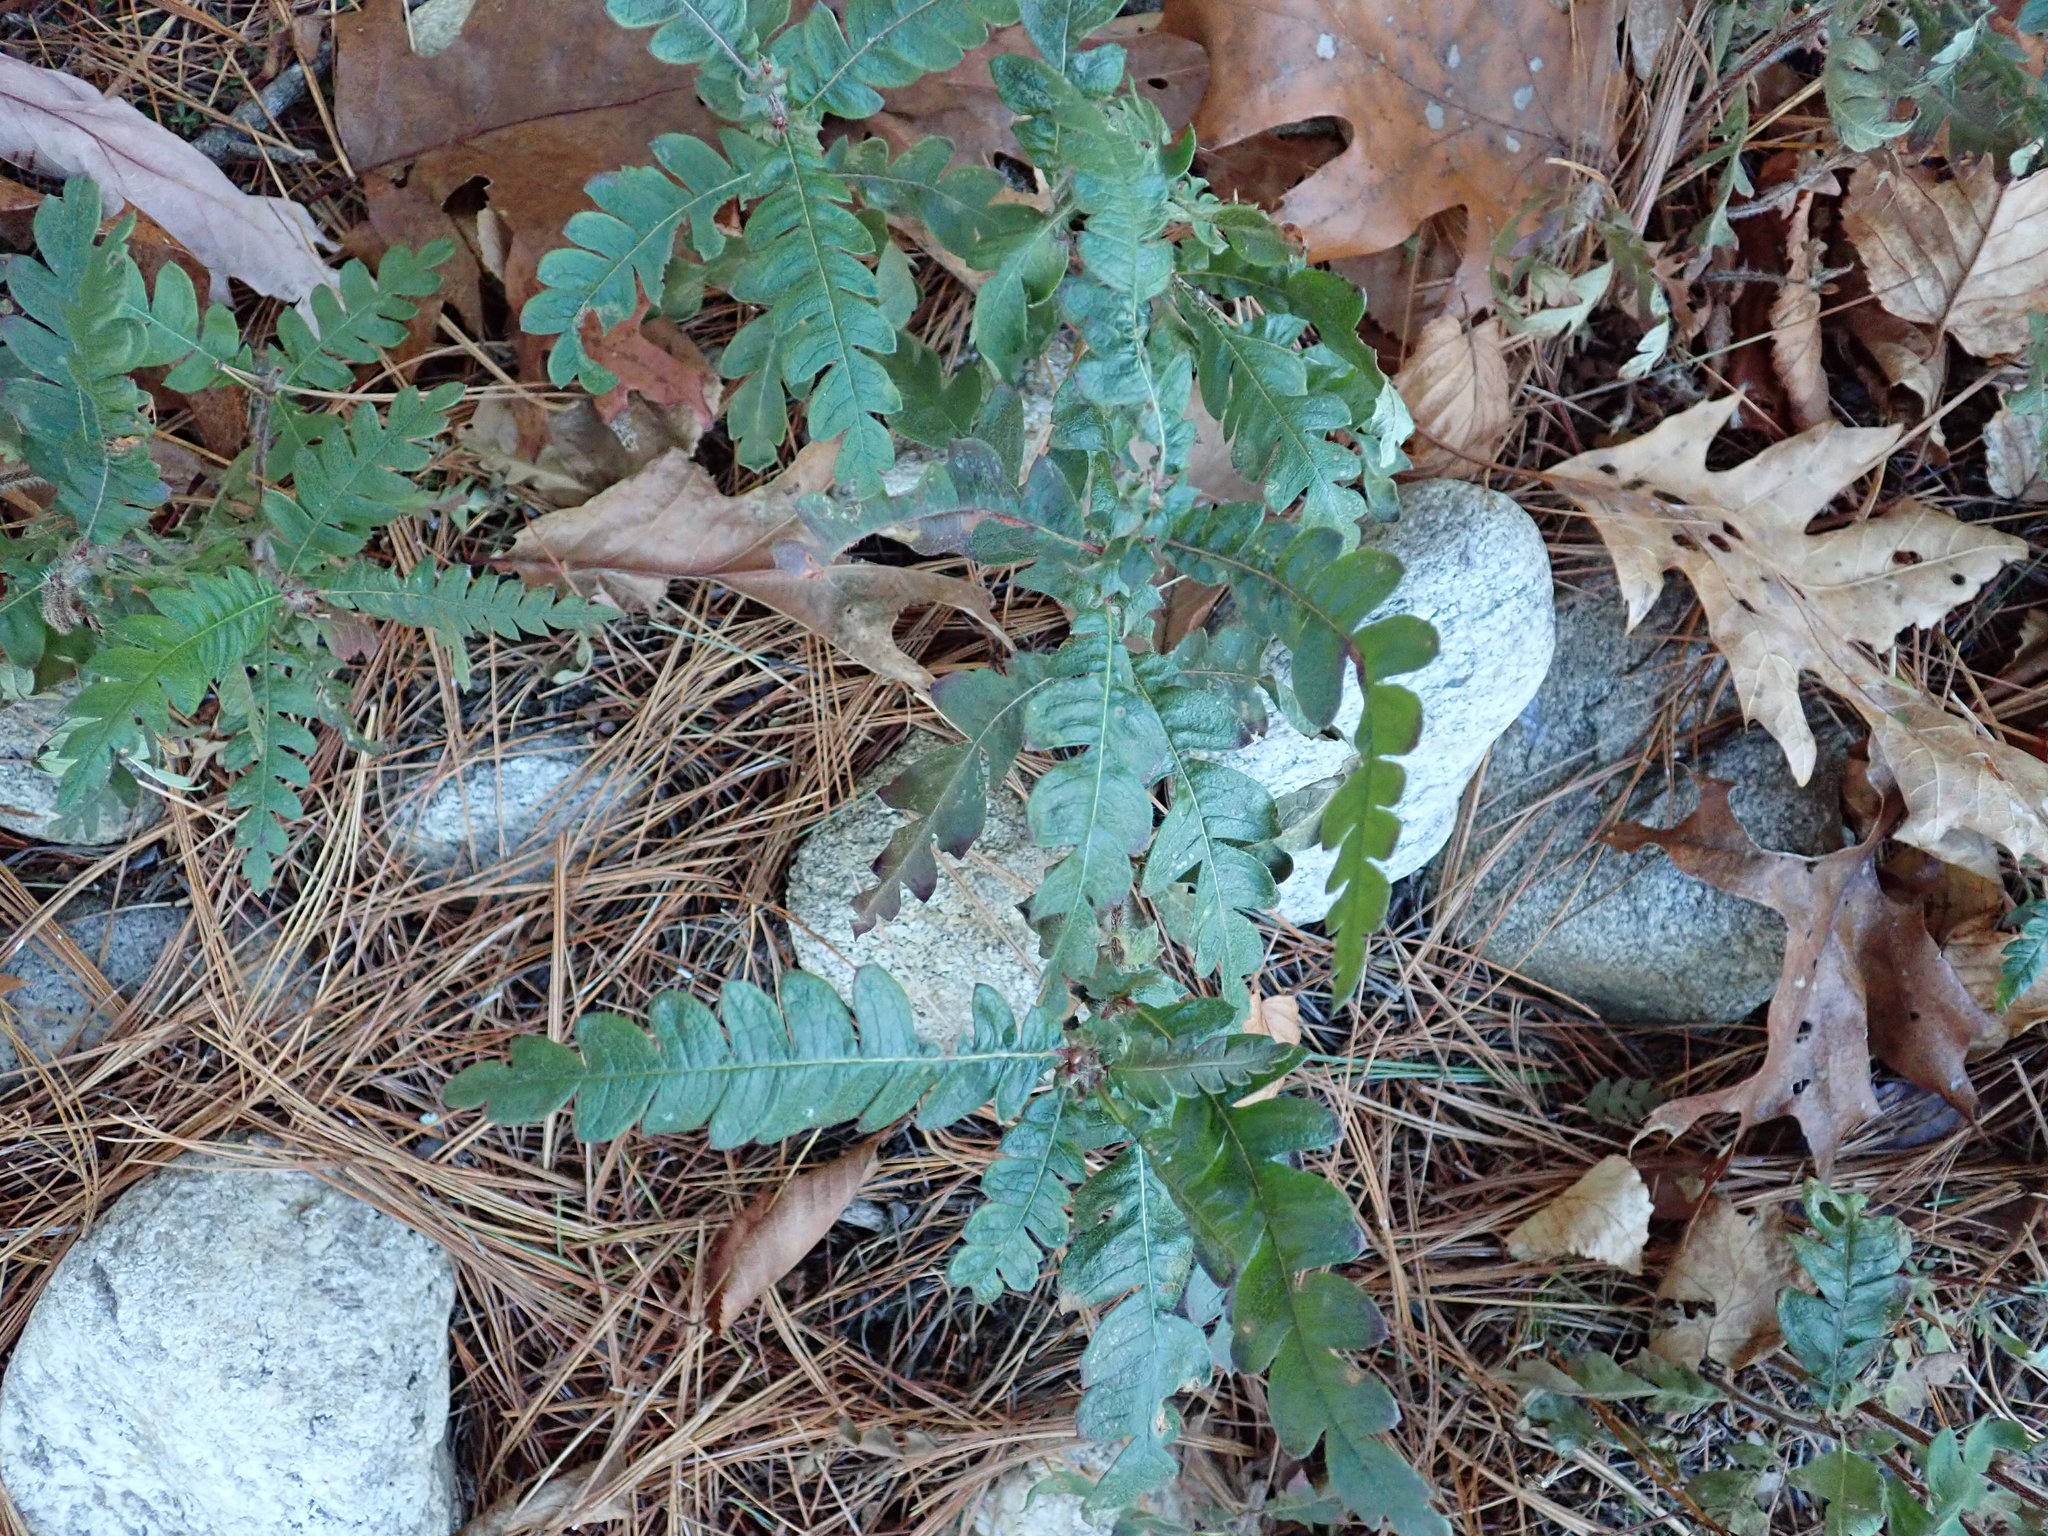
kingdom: Plantae
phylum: Tracheophyta
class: Magnoliopsida
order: Fagales
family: Myricaceae
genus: Comptonia
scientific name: Comptonia peregrina
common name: Sweet-fern
